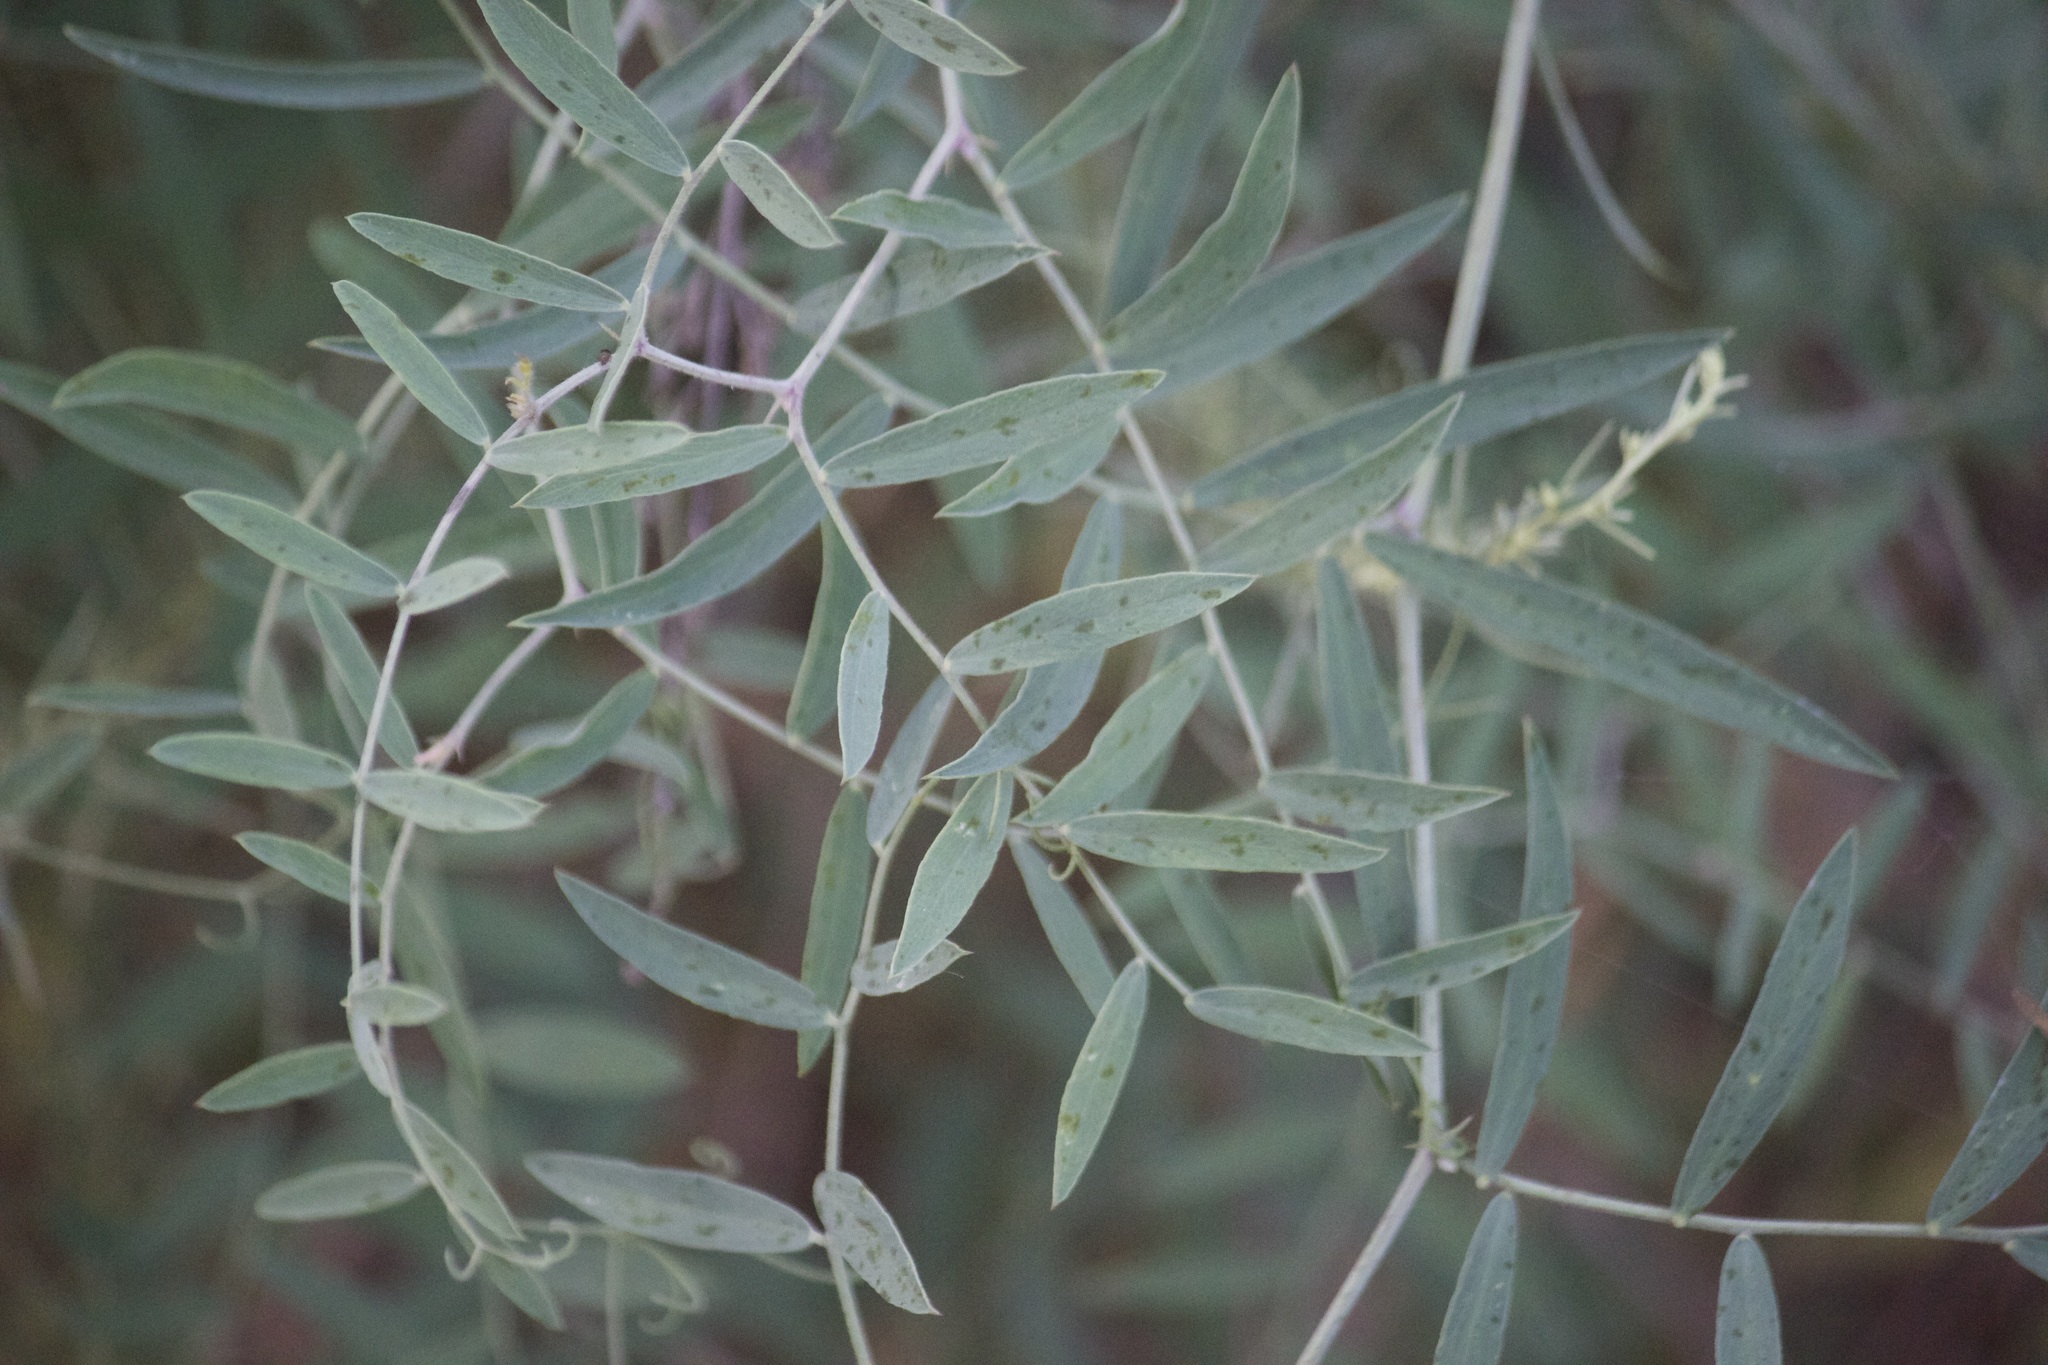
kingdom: Plantae
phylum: Tracheophyta
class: Magnoliopsida
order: Fabales
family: Fabaceae
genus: Lathyrus
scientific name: Lathyrus vestitus
